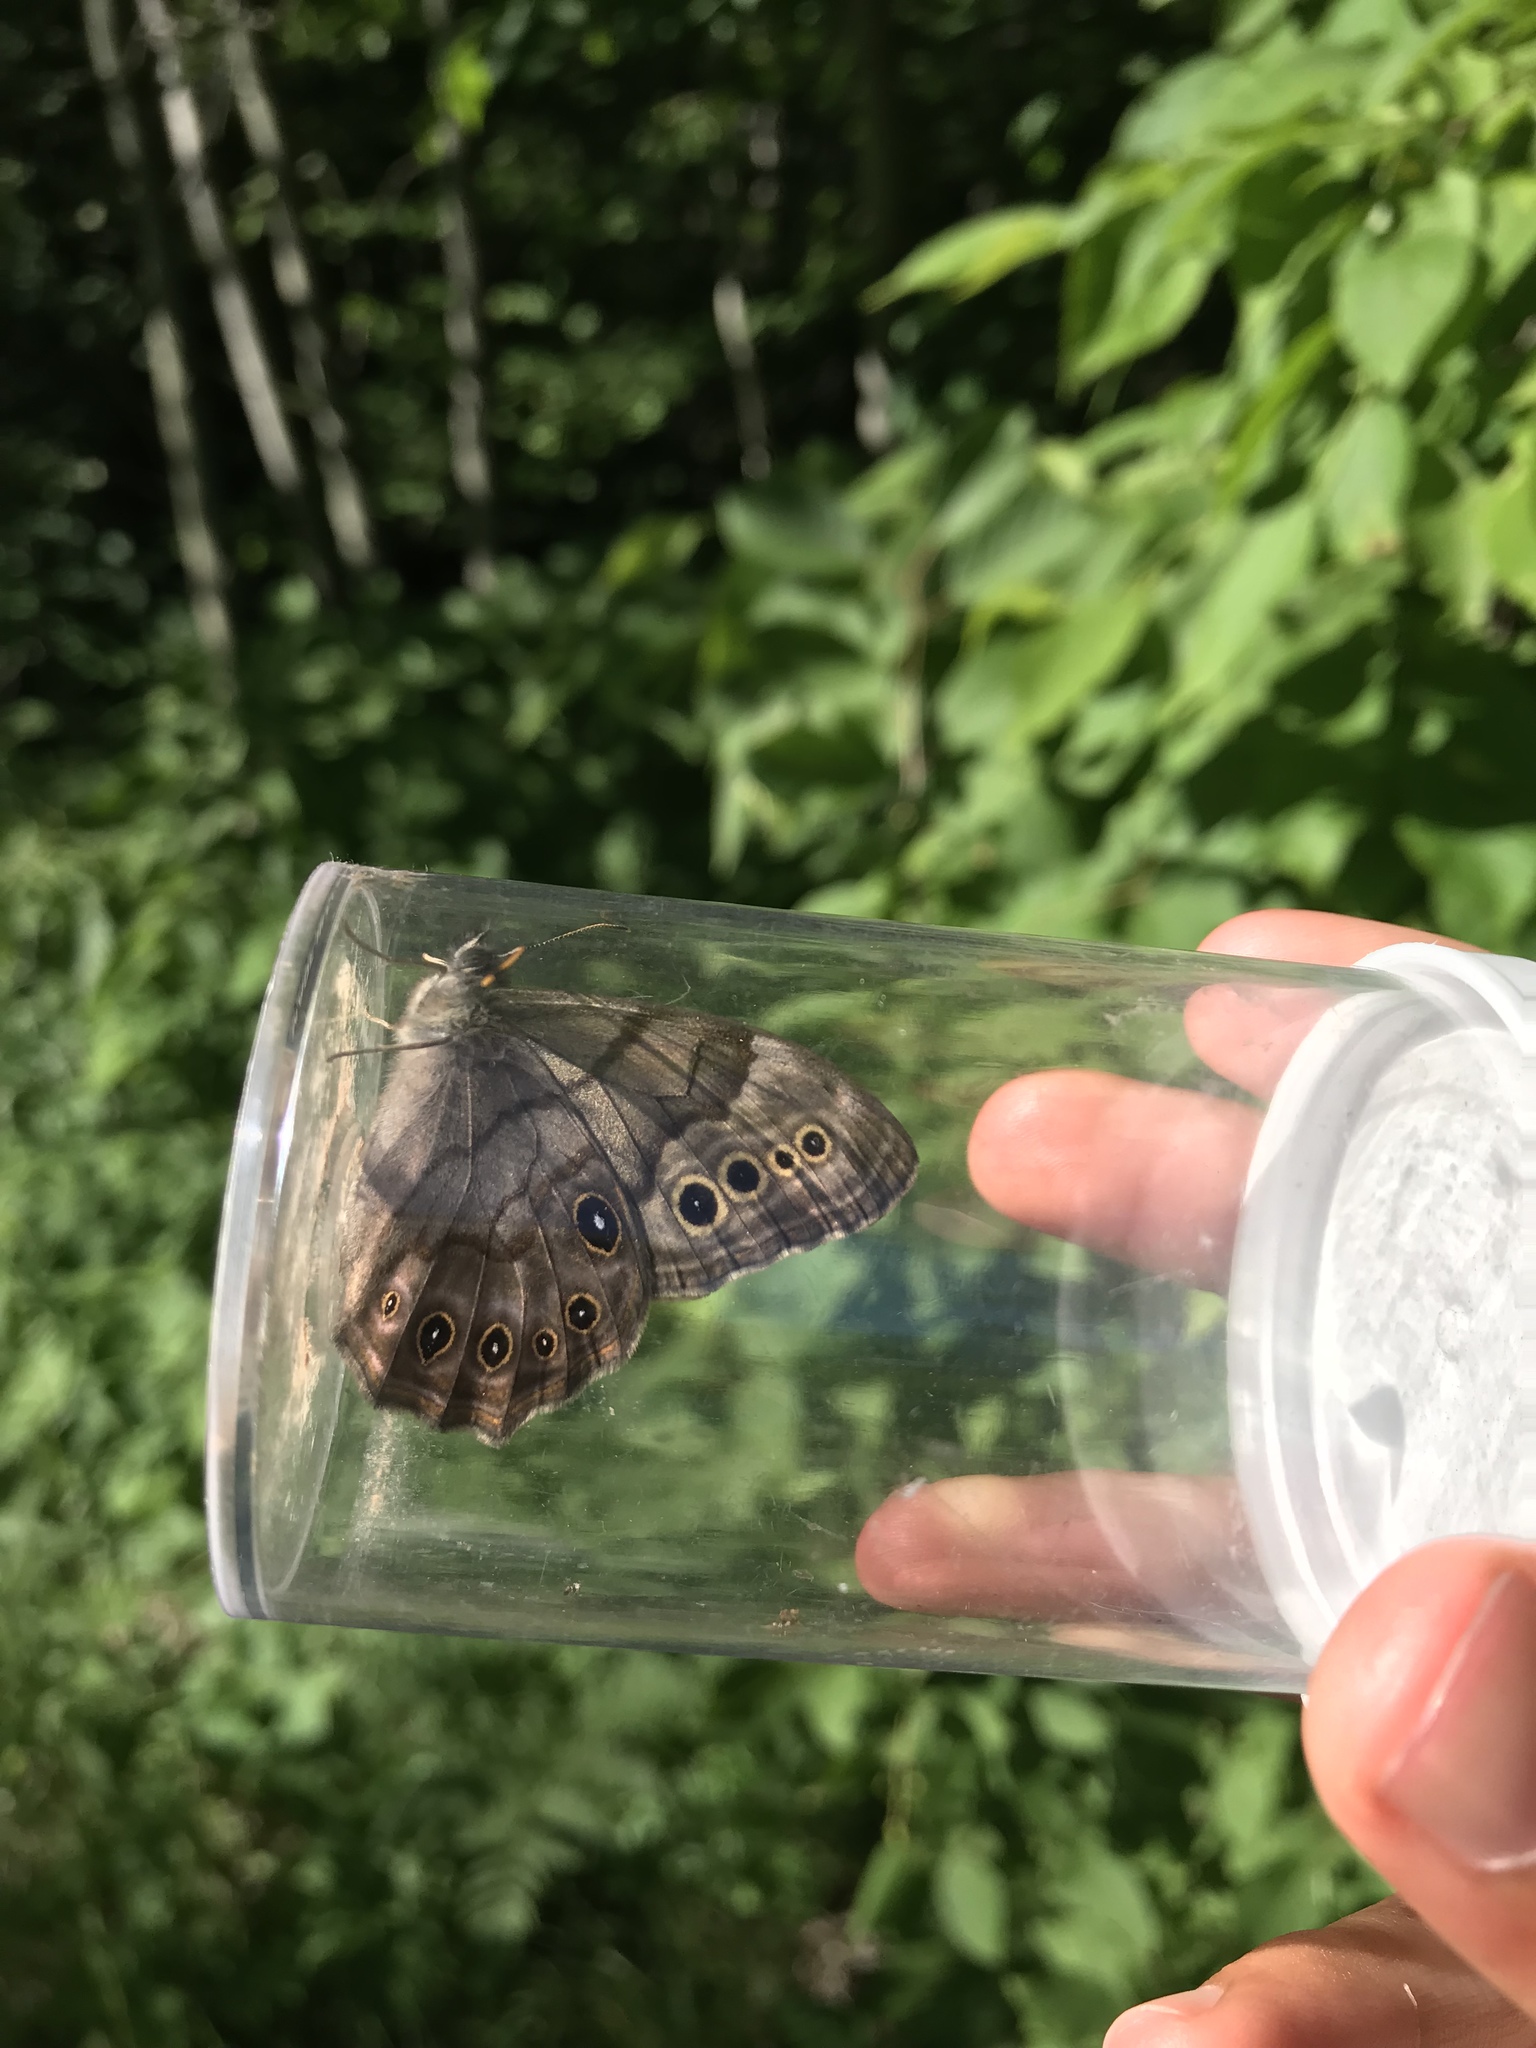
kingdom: Animalia
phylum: Arthropoda
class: Insecta
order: Lepidoptera
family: Nymphalidae
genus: Lethe
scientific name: Lethe anthedon
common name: Northern pearly-eye
